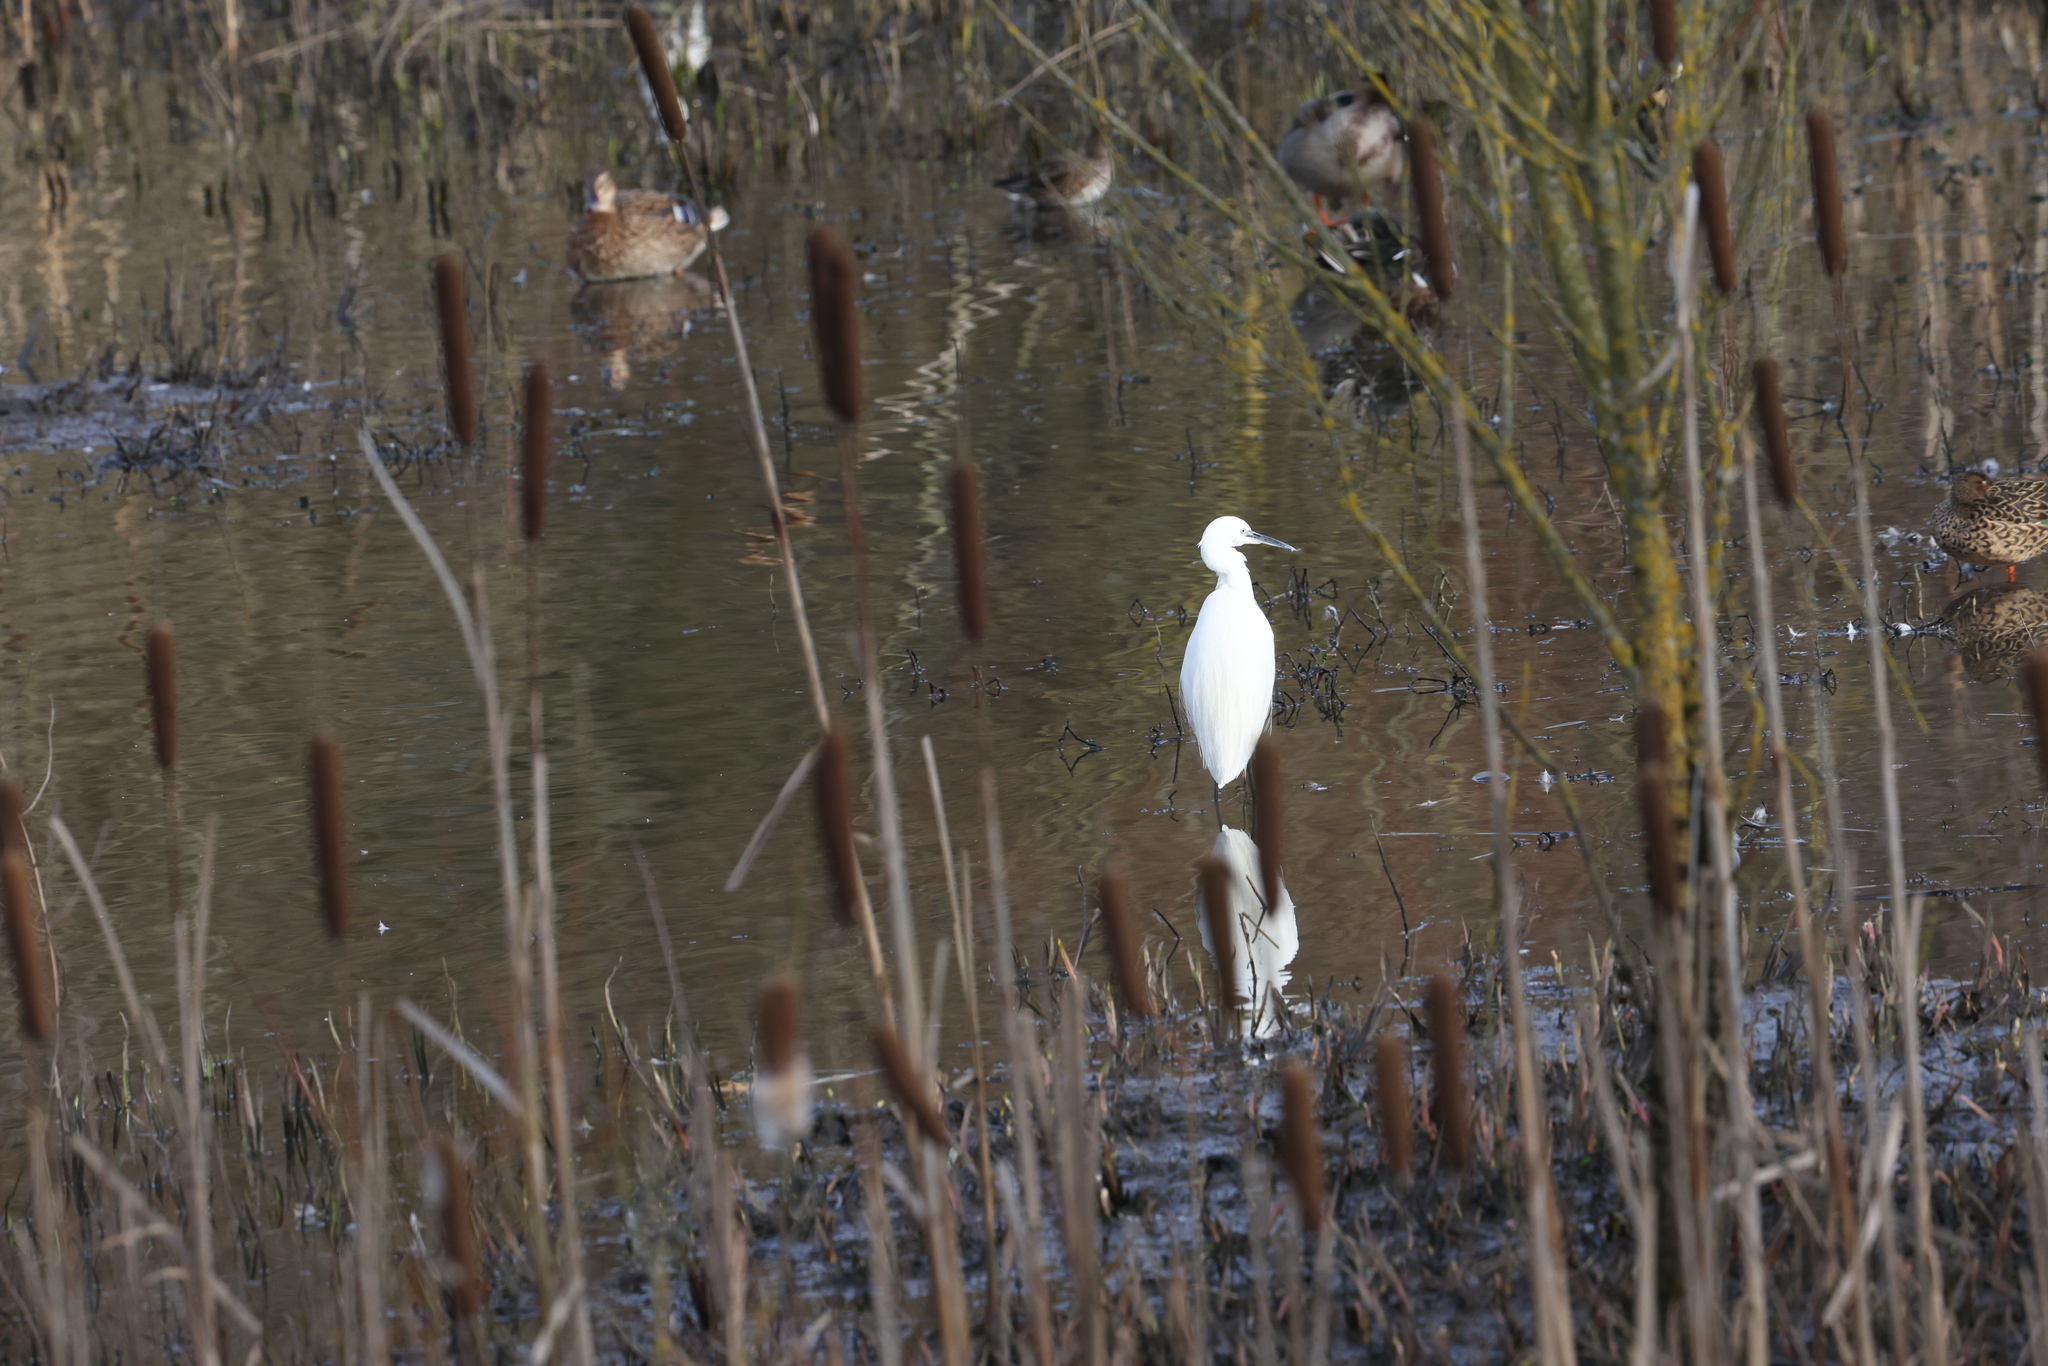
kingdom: Animalia
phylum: Chordata
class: Aves
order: Pelecaniformes
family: Ardeidae
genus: Egretta
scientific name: Egretta garzetta
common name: Little egret
